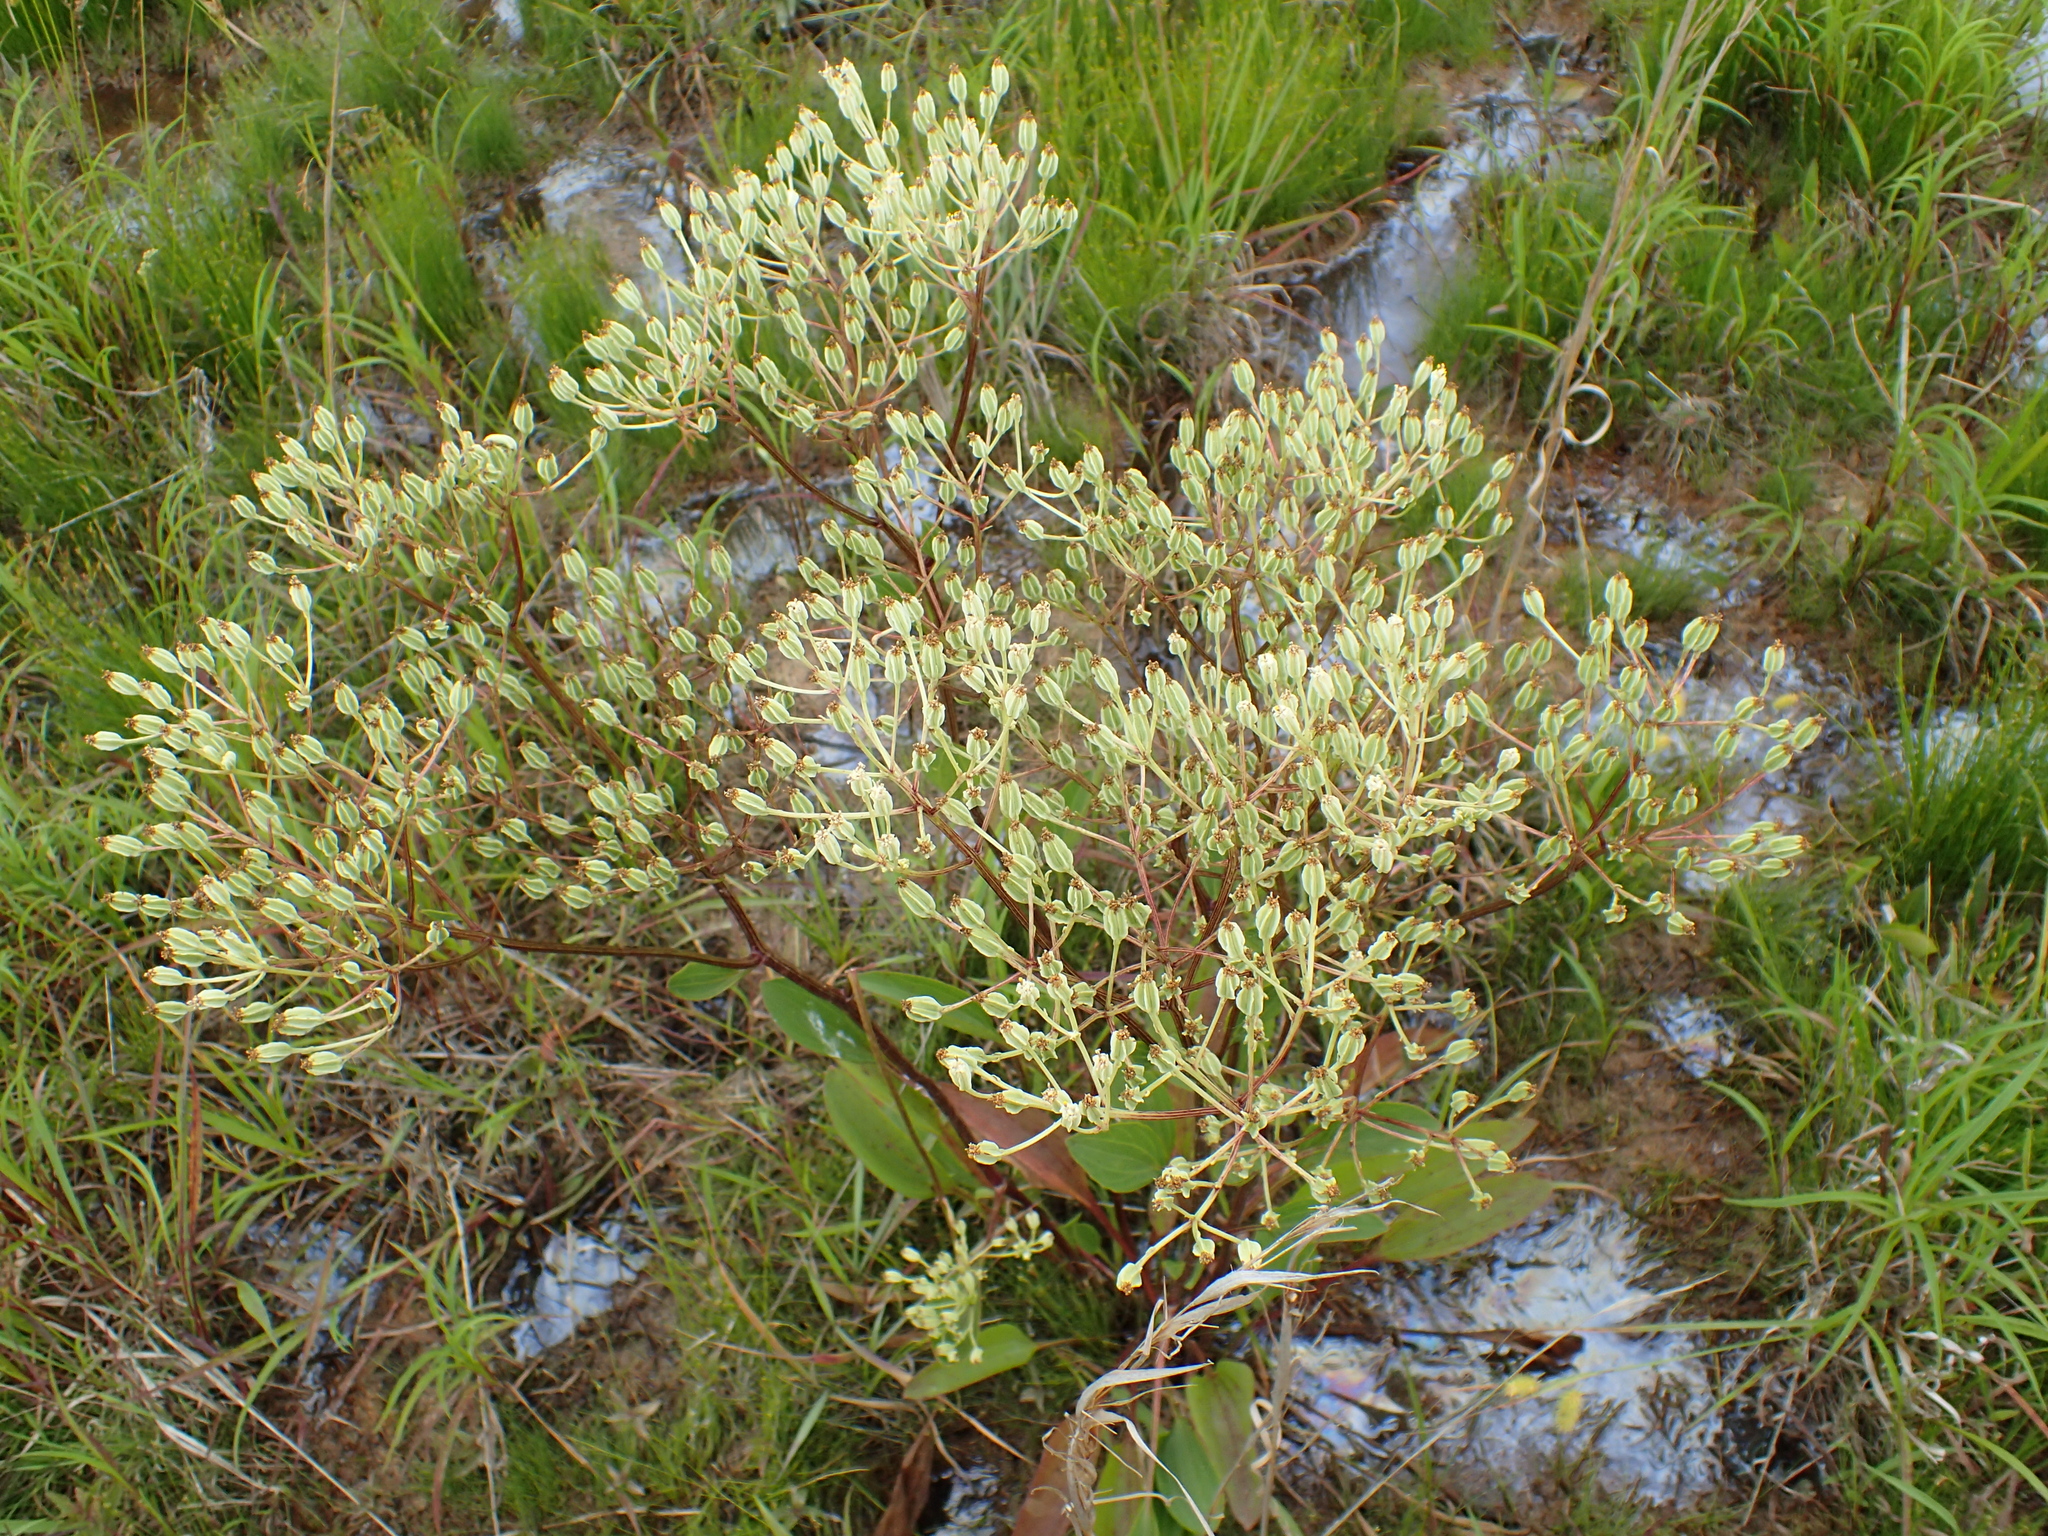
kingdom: Plantae
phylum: Tracheophyta
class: Magnoliopsida
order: Asterales
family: Asteraceae
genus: Arnoglossum
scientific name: Arnoglossum plantagineum
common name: Groove-stemmed indian-plantain
